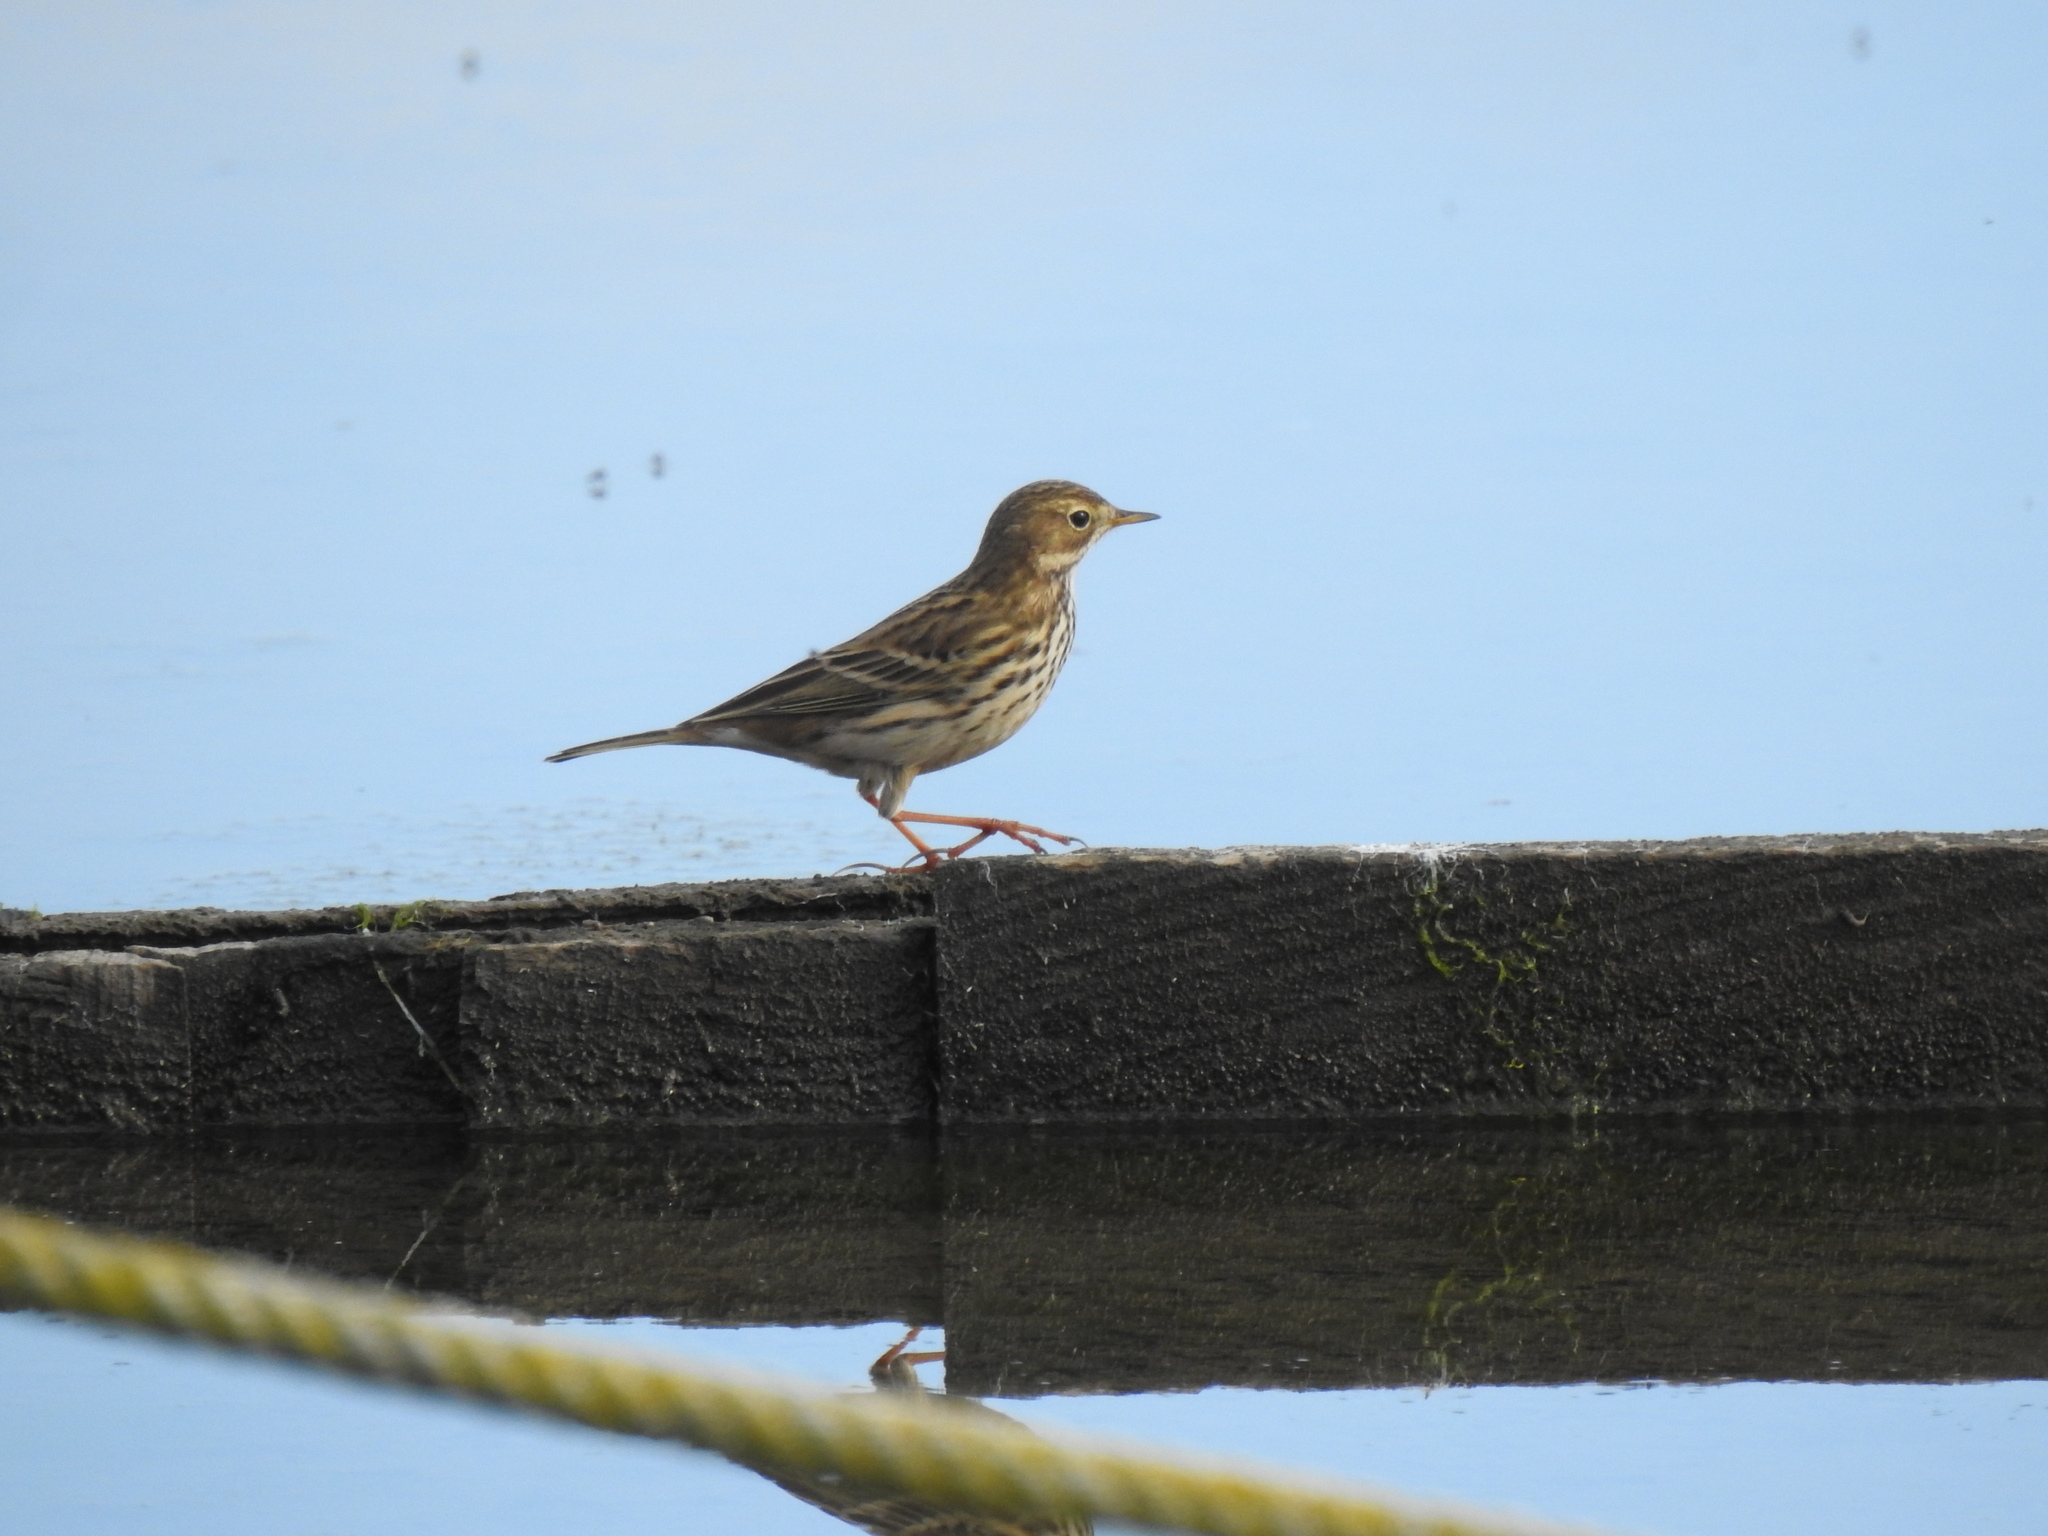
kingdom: Animalia
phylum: Chordata
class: Aves
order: Passeriformes
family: Motacillidae
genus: Anthus
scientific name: Anthus pratensis
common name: Meadow pipit
